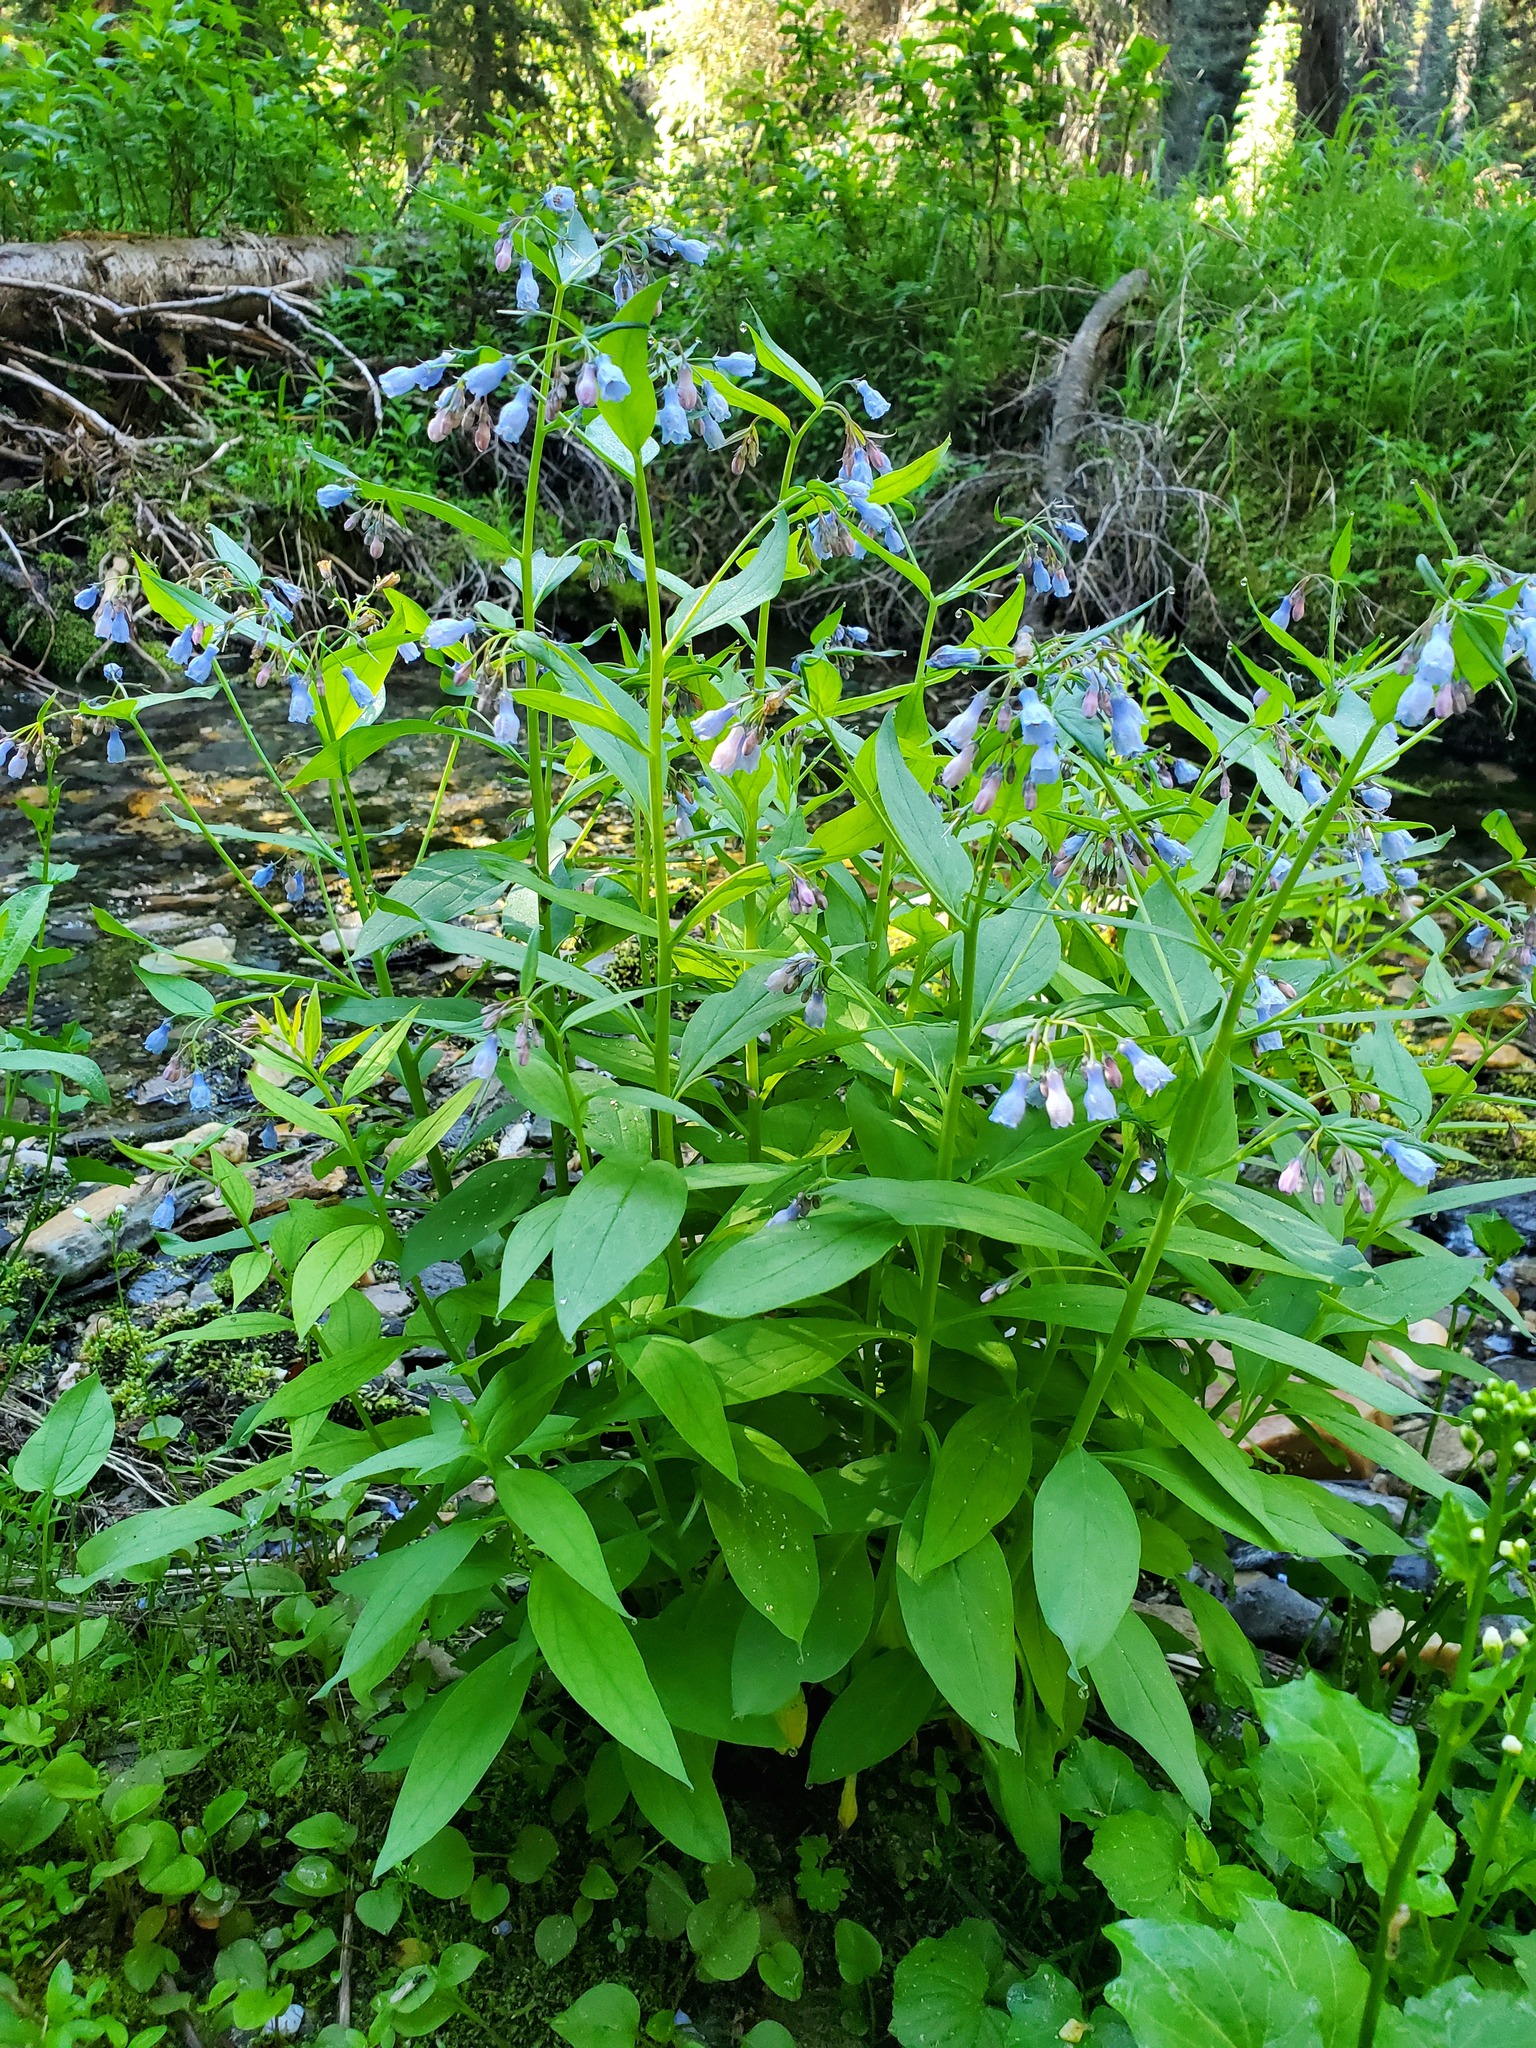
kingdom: Plantae
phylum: Tracheophyta
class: Magnoliopsida
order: Boraginales
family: Boraginaceae
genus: Mertensia
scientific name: Mertensia paniculata
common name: Panicled bluebells
